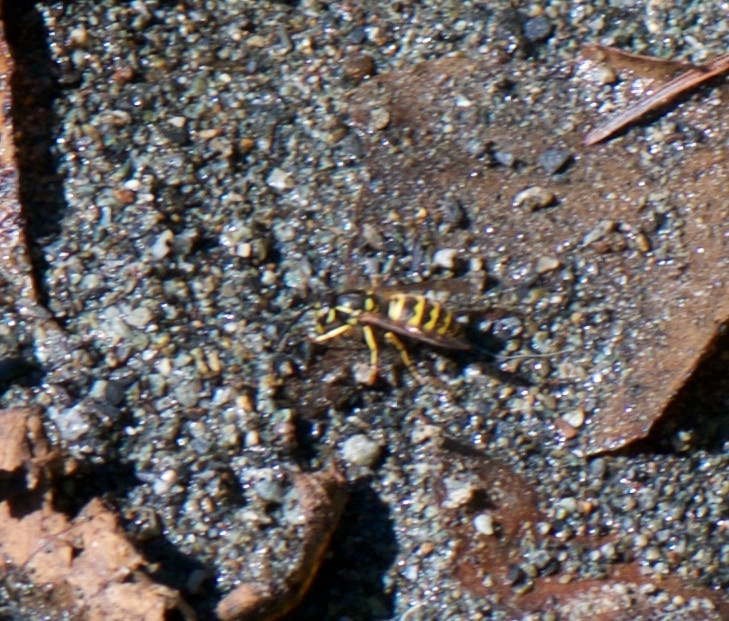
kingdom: Animalia
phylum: Arthropoda
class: Insecta
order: Hymenoptera
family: Vespidae
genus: Vespula
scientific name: Vespula alascensis
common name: Alaska yellowjacket
